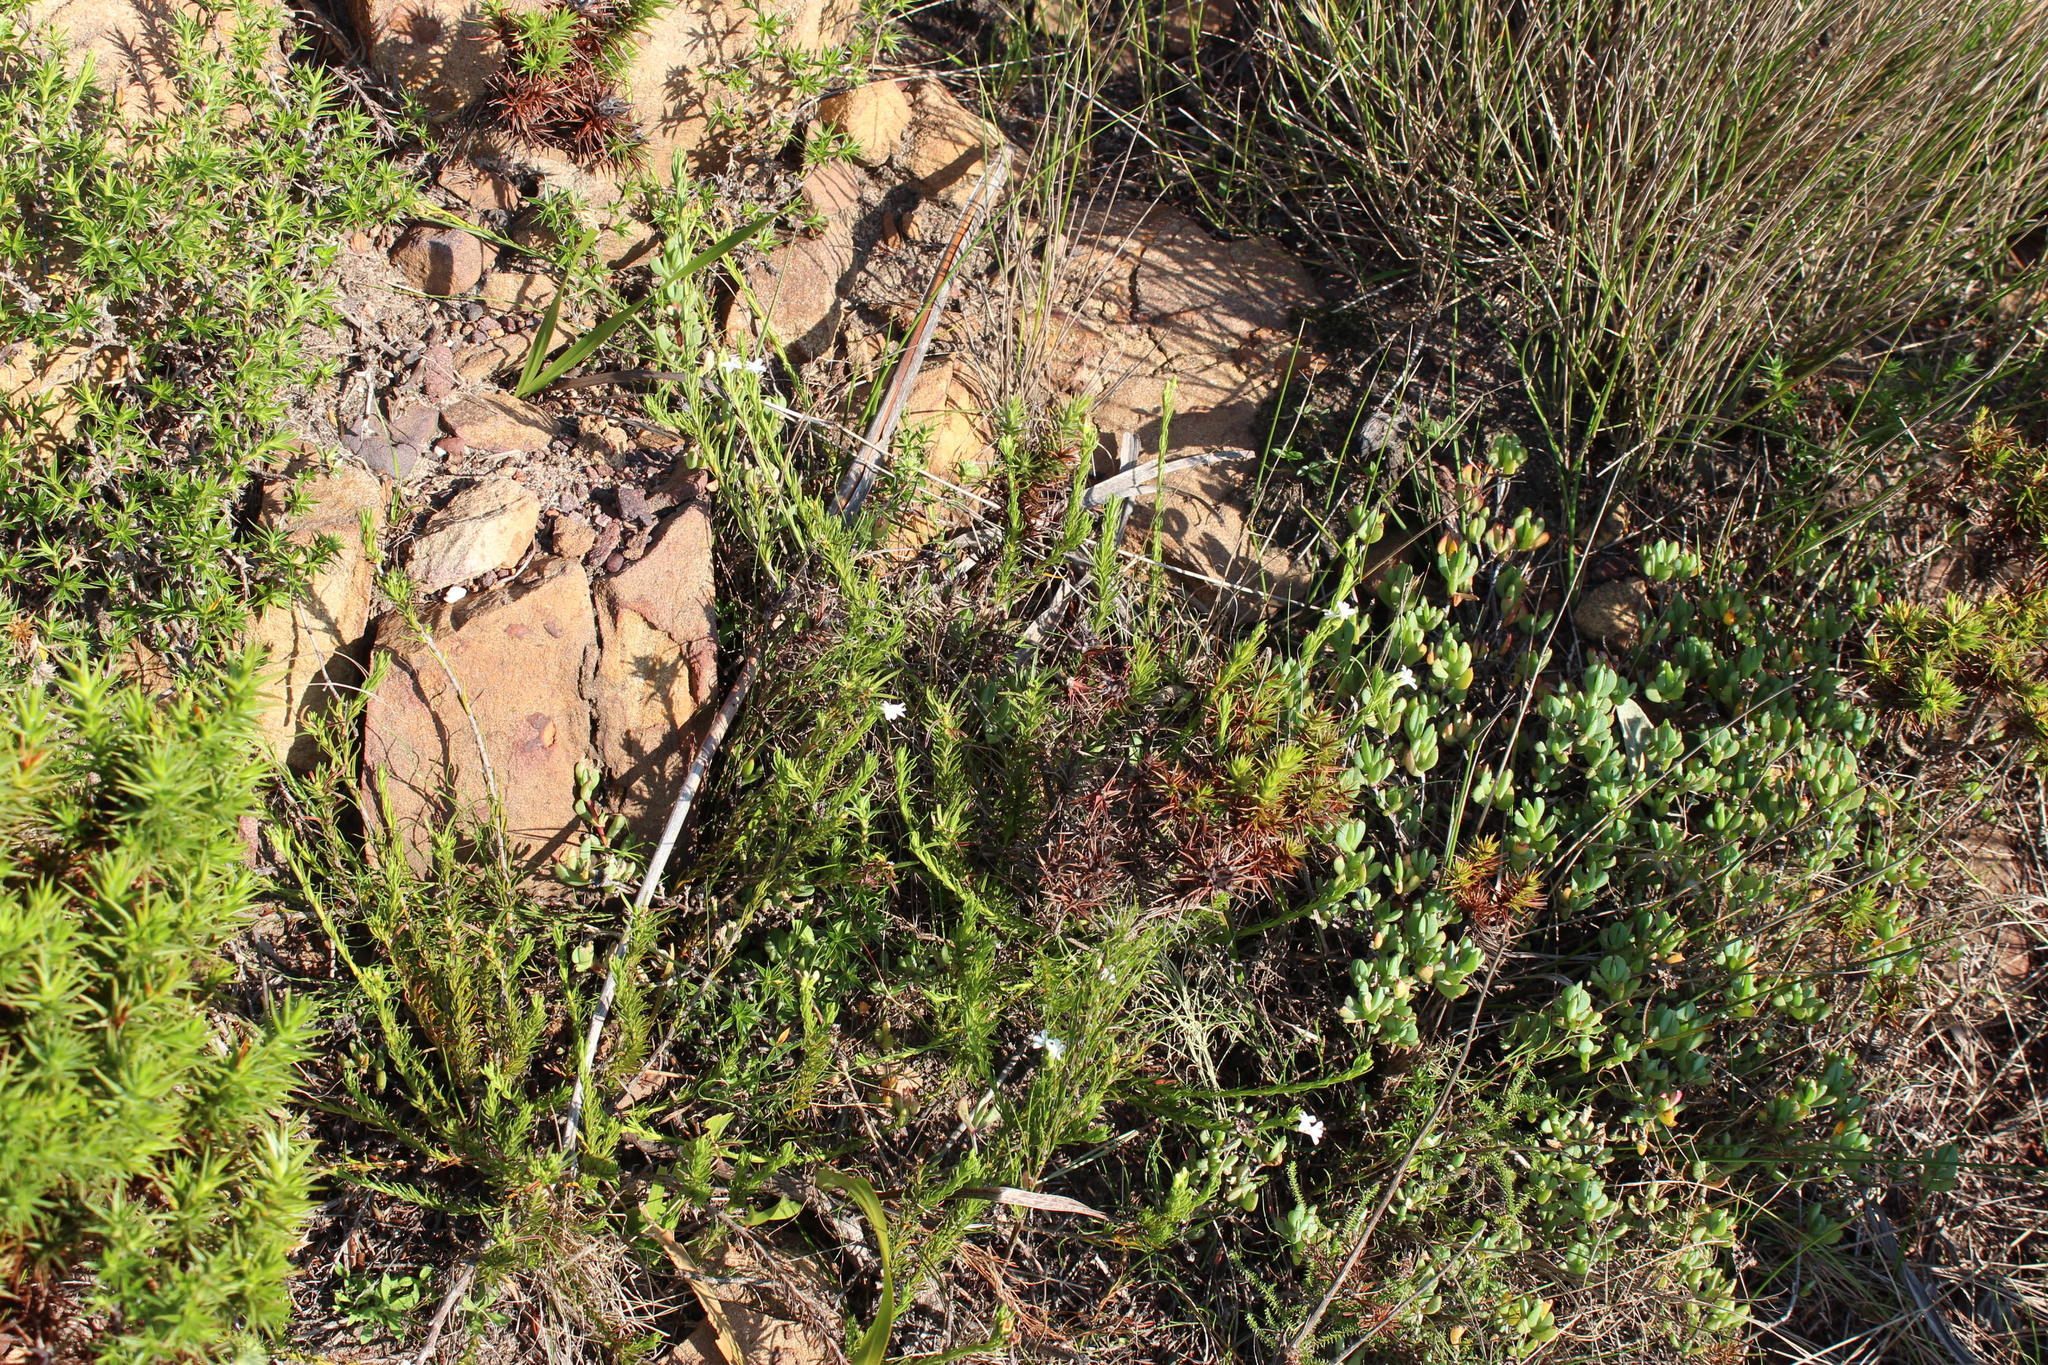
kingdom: Plantae
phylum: Tracheophyta
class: Magnoliopsida
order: Asterales
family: Campanulaceae
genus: Lobelia
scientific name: Lobelia pinifolia
